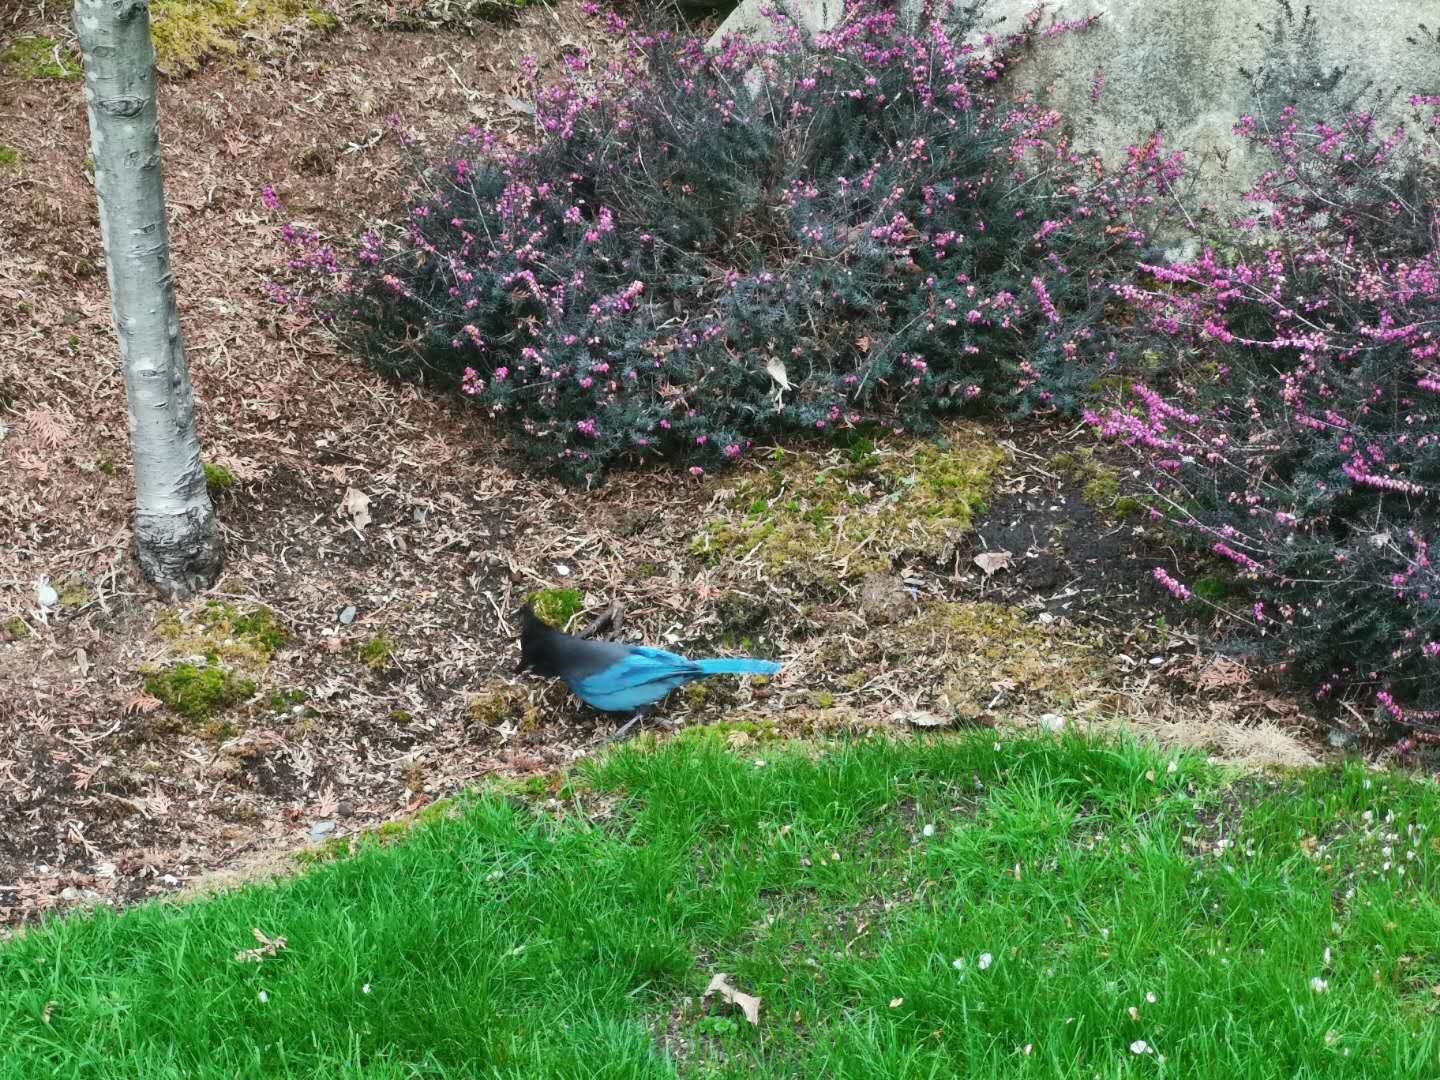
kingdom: Animalia
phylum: Chordata
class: Aves
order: Passeriformes
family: Corvidae
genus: Cyanocitta
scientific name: Cyanocitta stelleri
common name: Steller's jay
